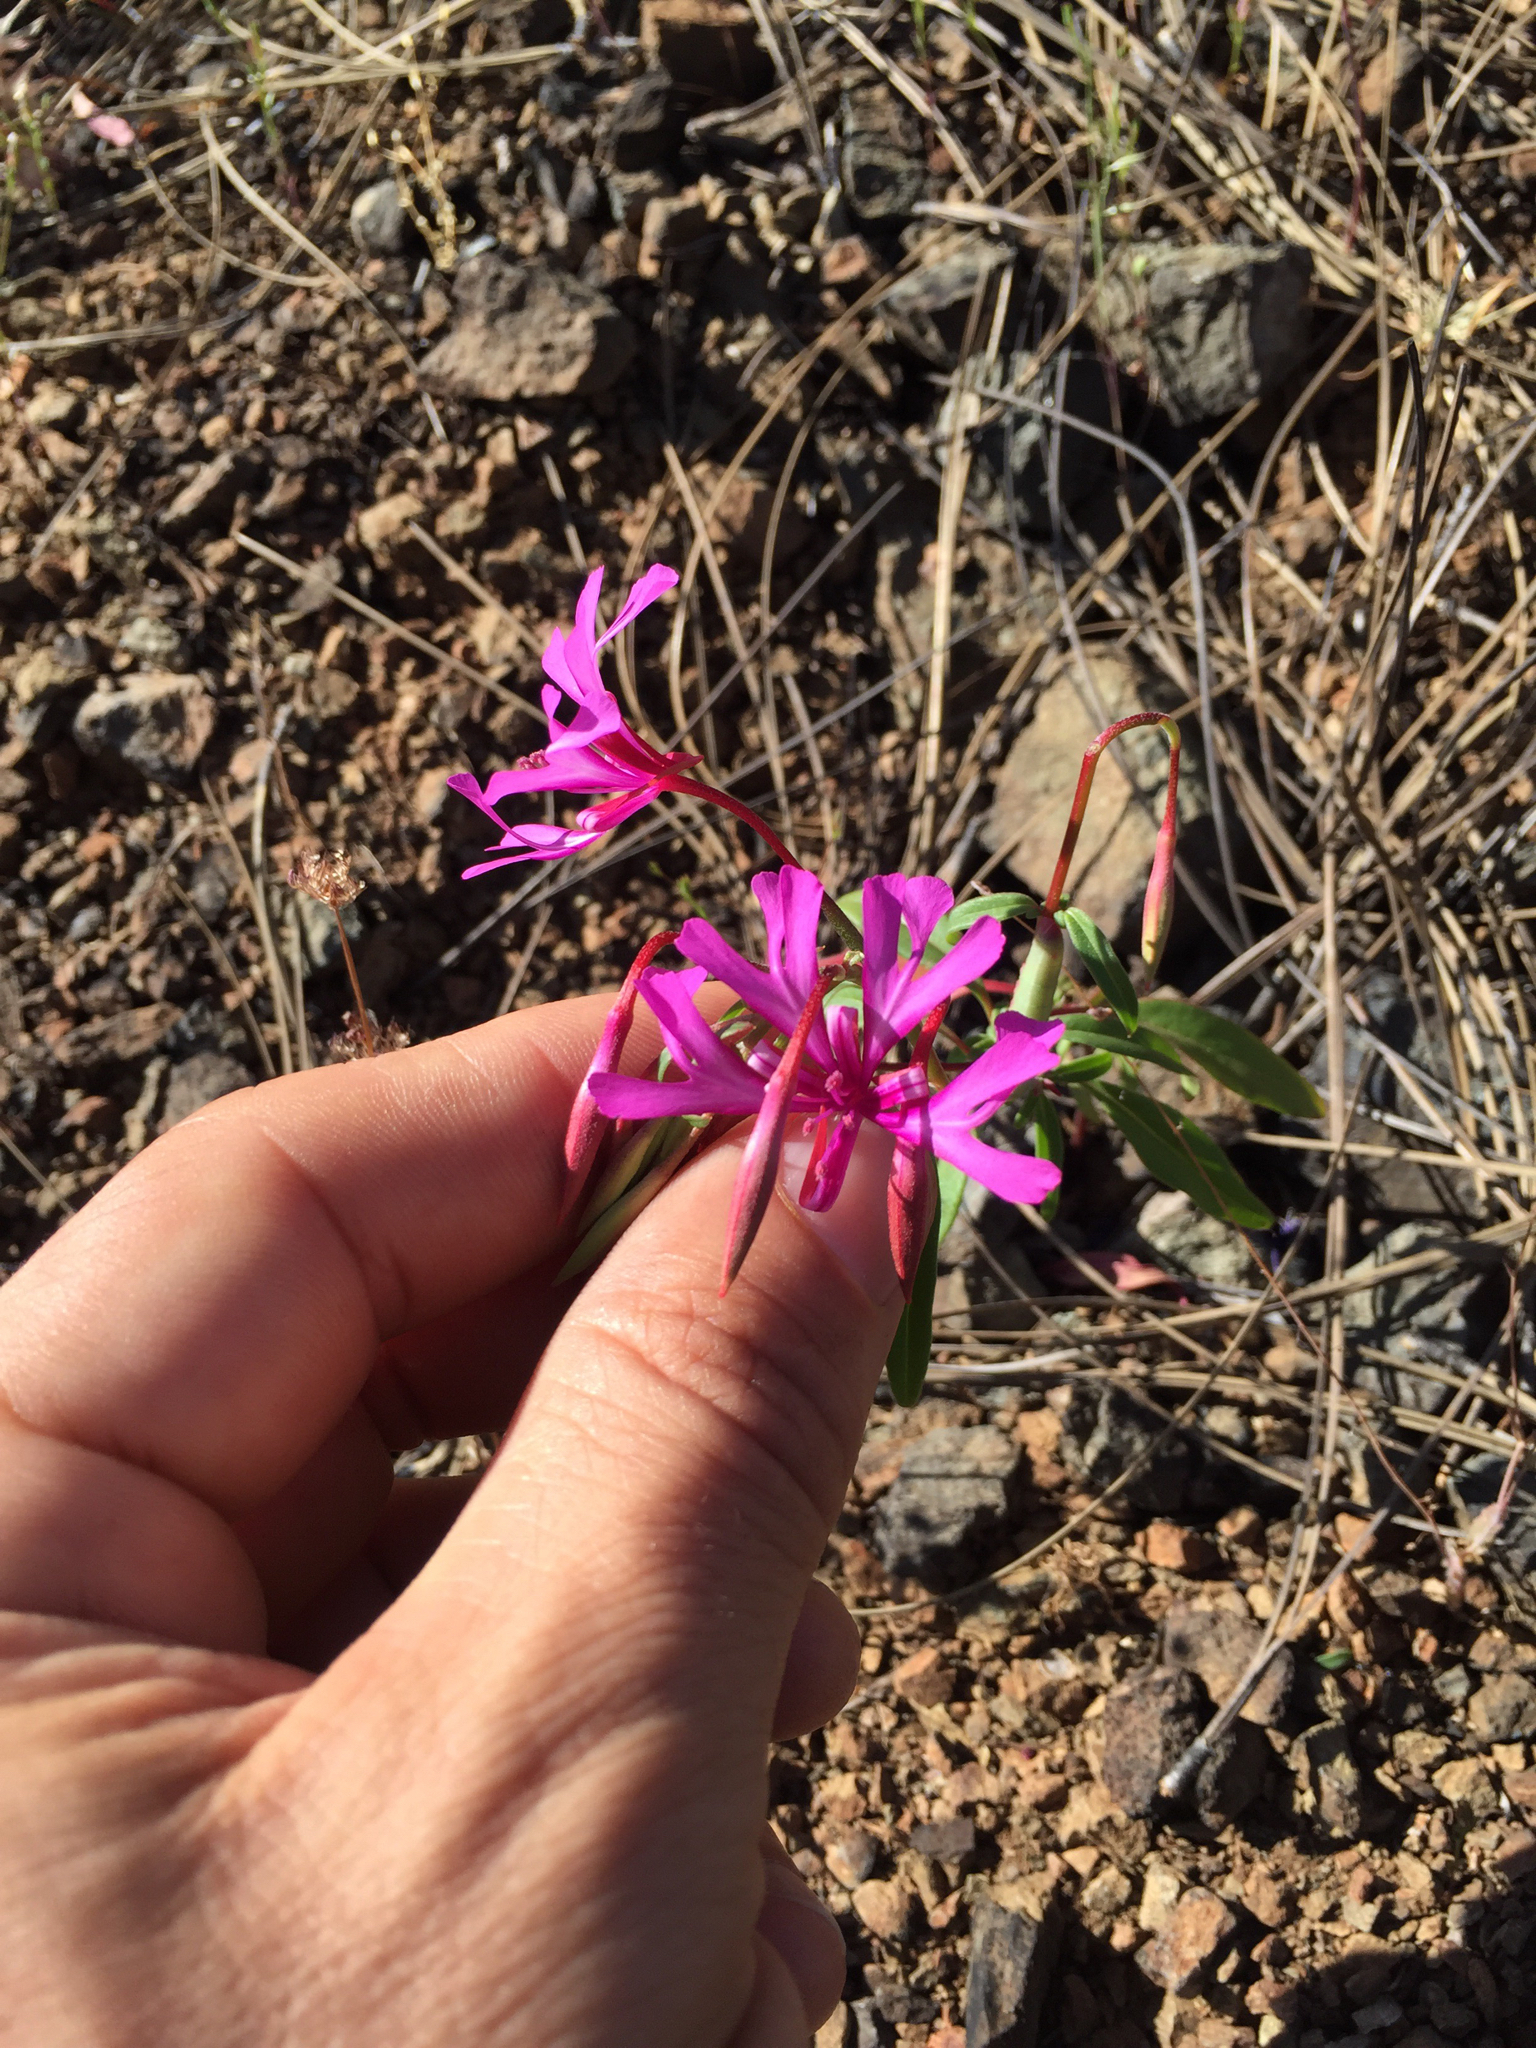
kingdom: Plantae
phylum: Tracheophyta
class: Magnoliopsida
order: Myrtales
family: Onagraceae
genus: Clarkia
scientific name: Clarkia concinna
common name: Red-ribbons
